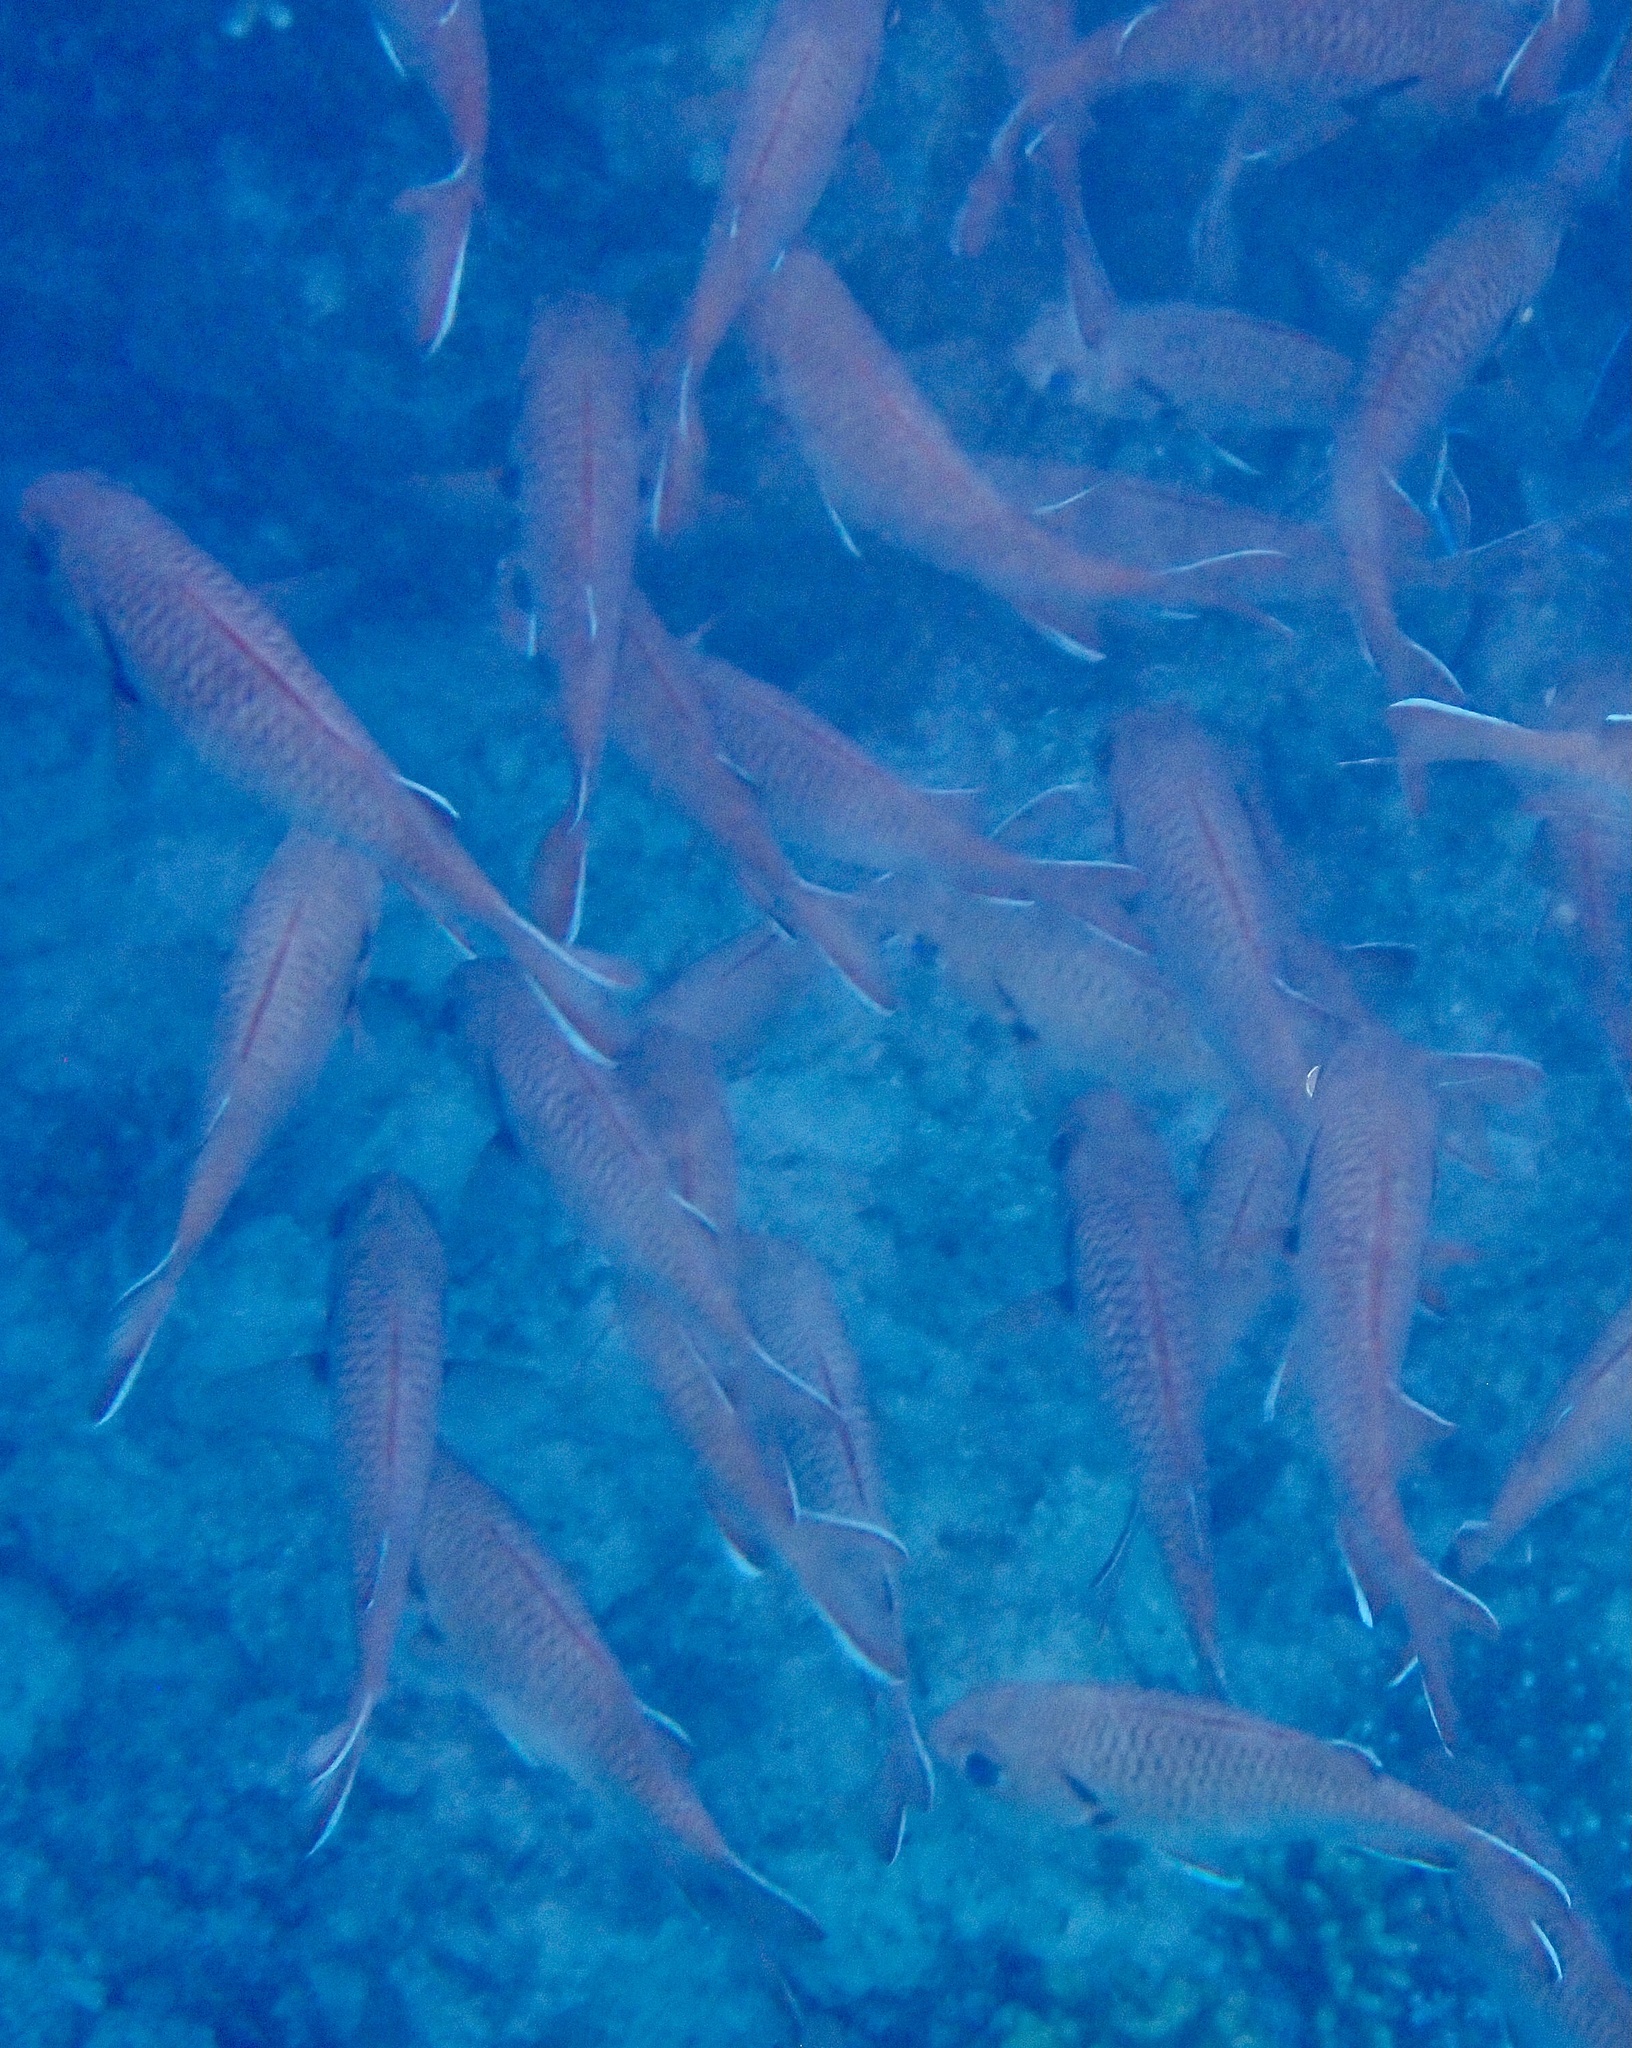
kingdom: Animalia
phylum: Chordata
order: Beryciformes
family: Holocentridae
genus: Myripristis
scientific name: Myripristis murdjan
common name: Big-eye soldierfish
